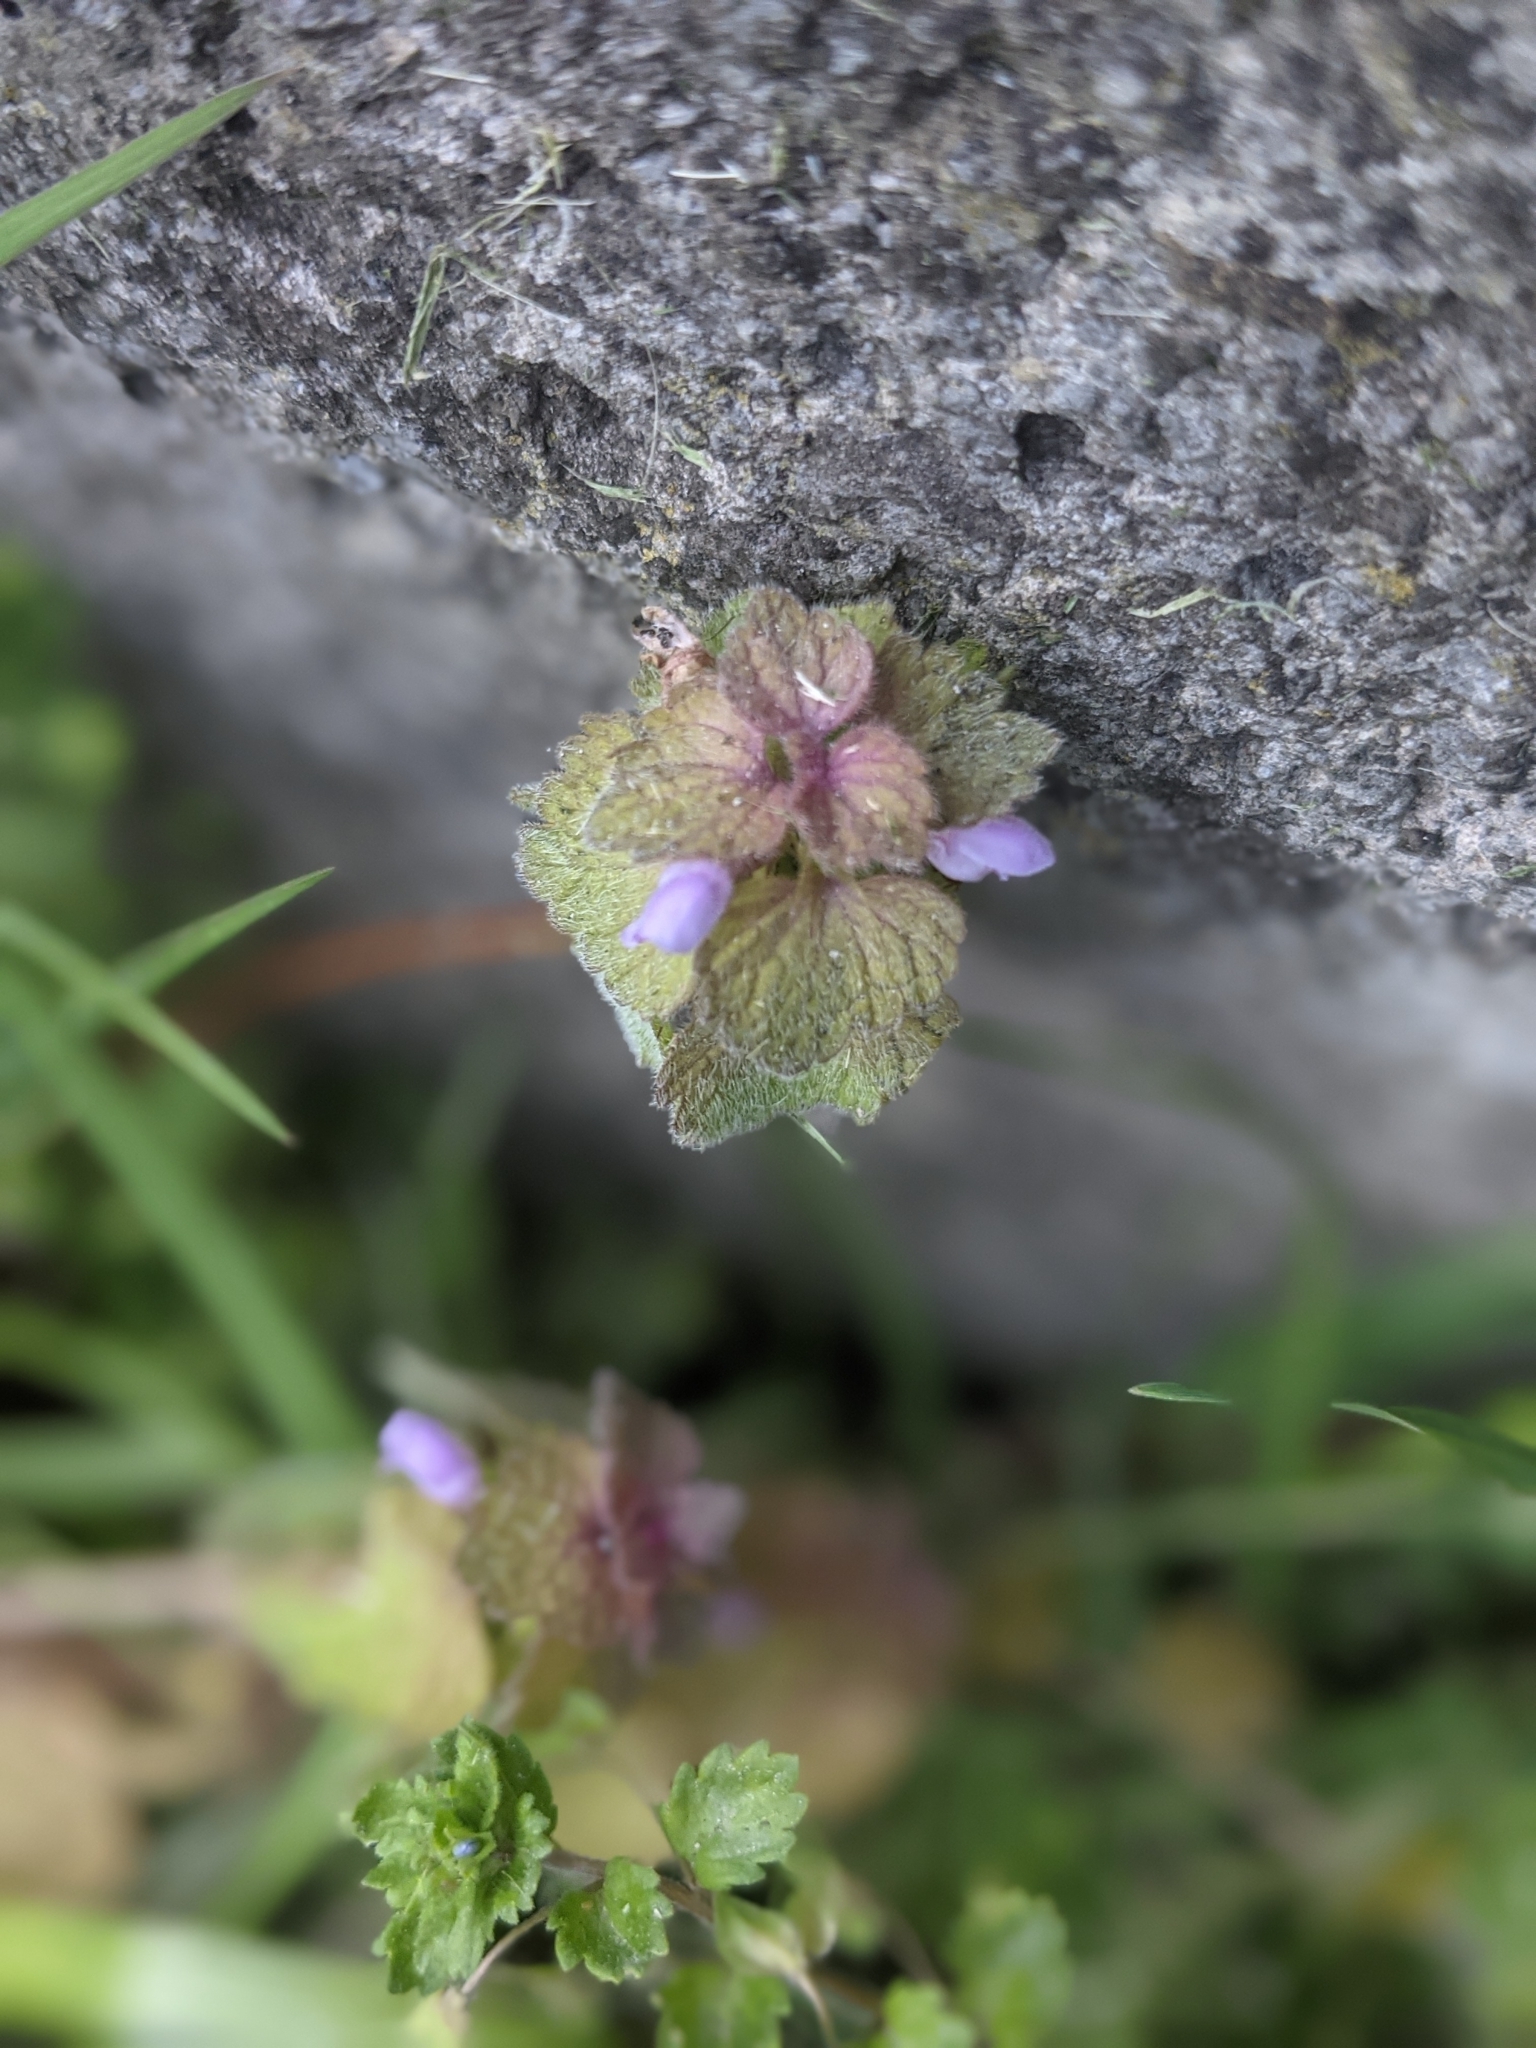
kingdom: Plantae
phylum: Tracheophyta
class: Magnoliopsida
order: Lamiales
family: Lamiaceae
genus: Lamium
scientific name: Lamium purpureum
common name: Red dead-nettle
